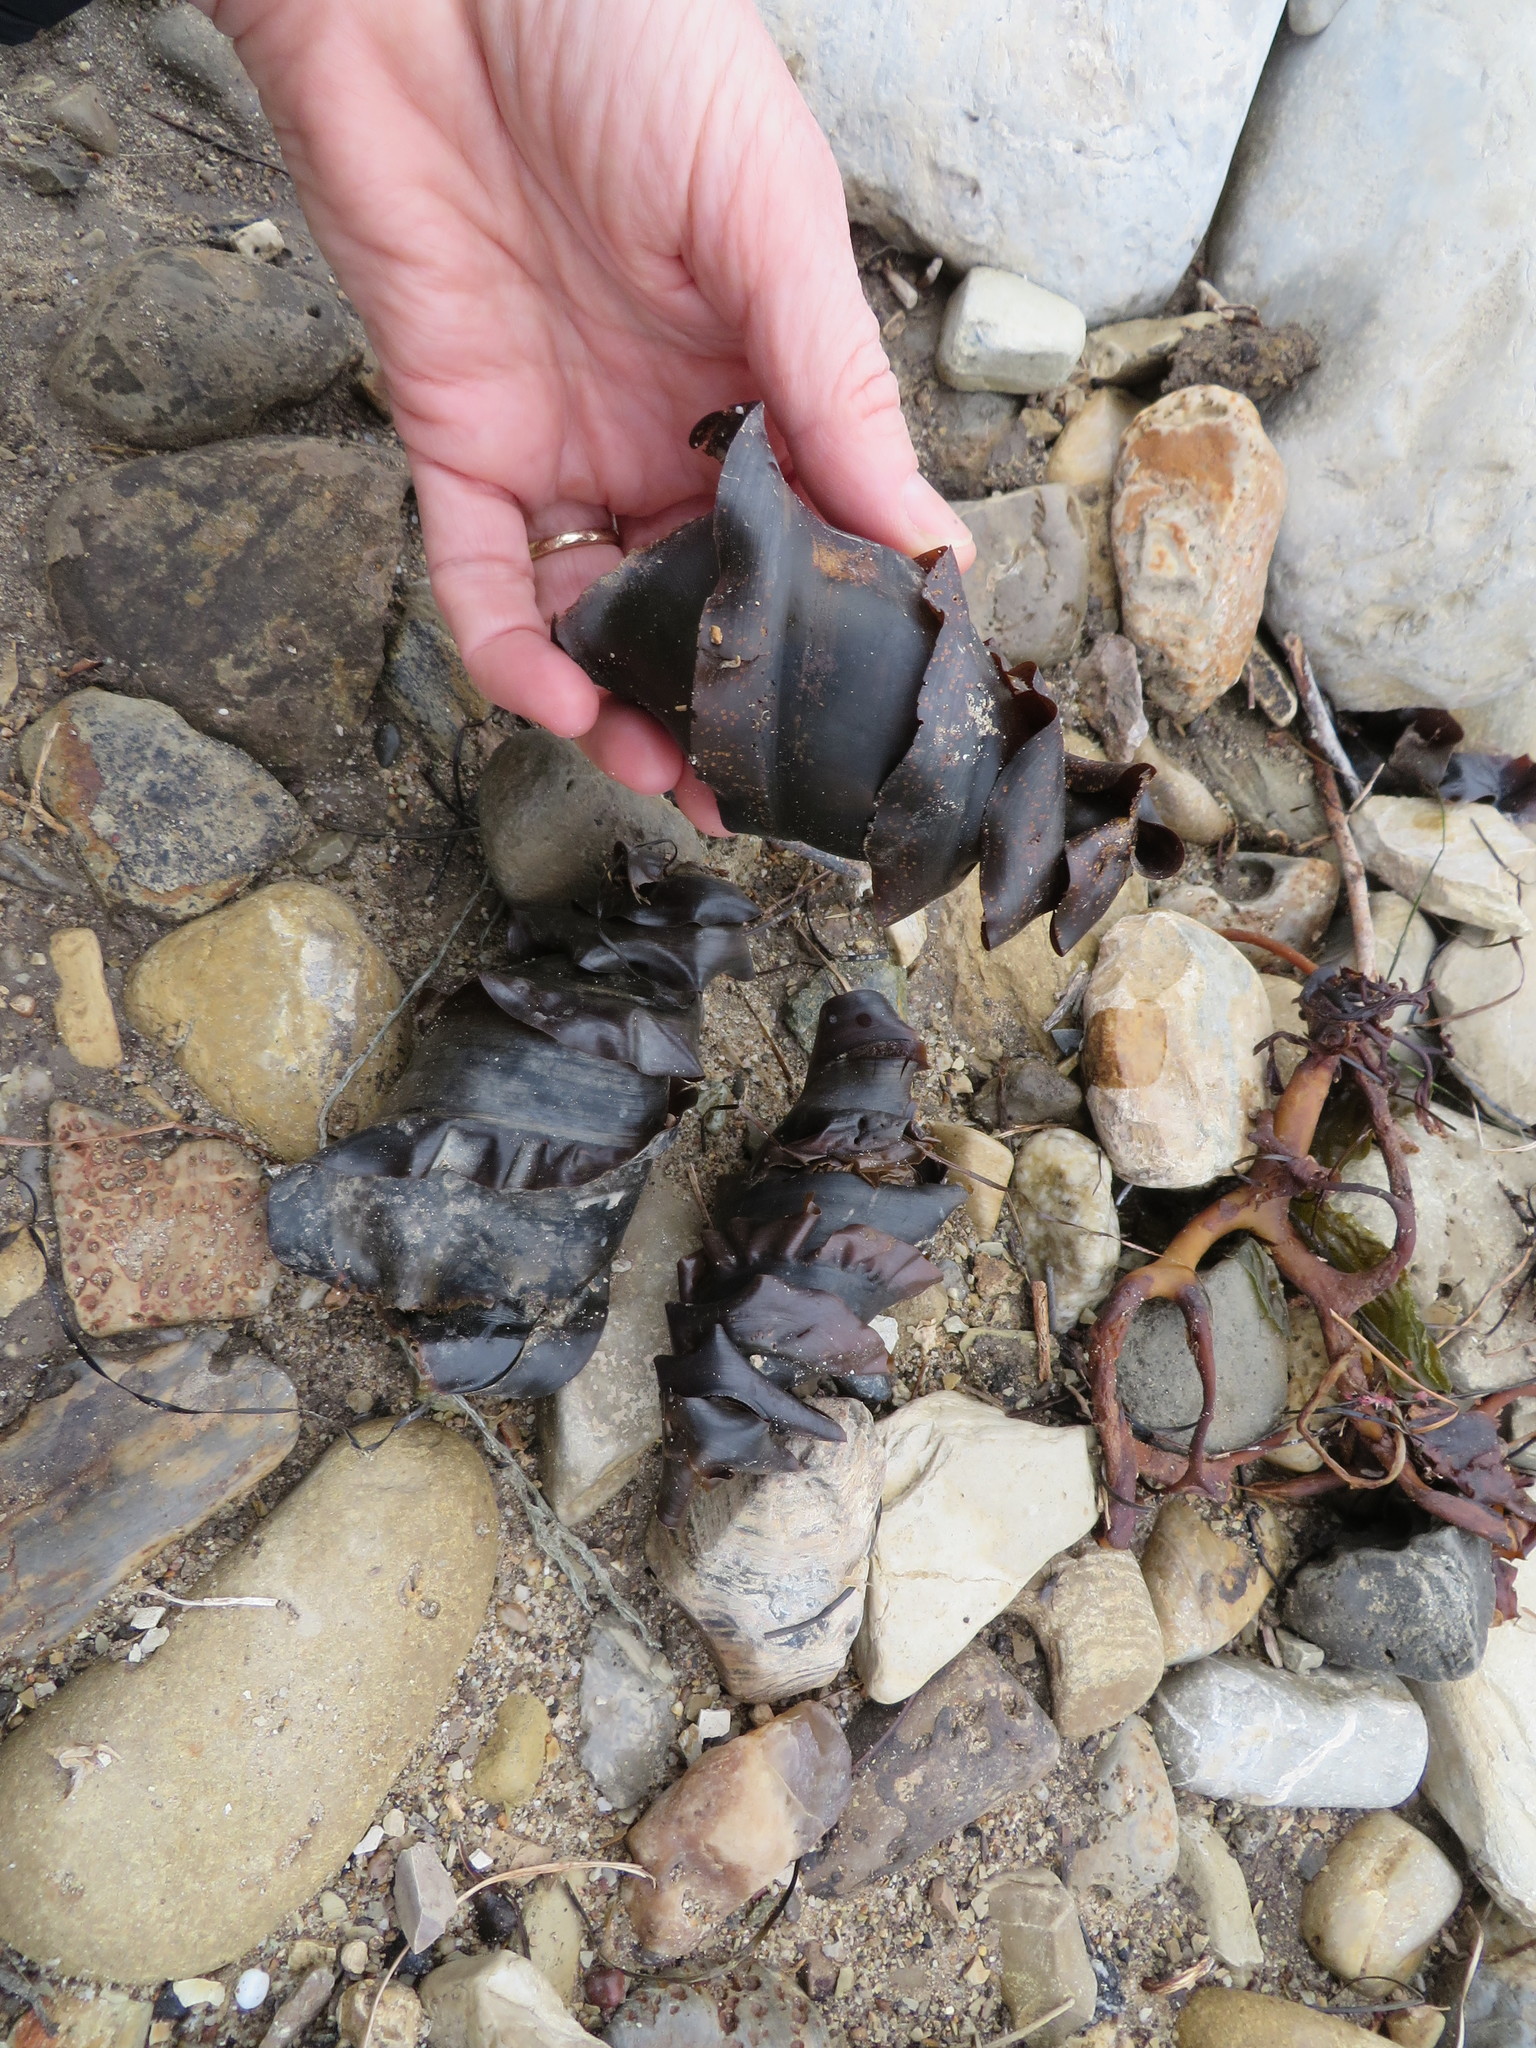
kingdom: Animalia
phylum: Chordata
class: Elasmobranchii
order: Heterodontiformes
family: Heterodontidae
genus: Heterodontus
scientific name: Heterodontus francisci
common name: Horn shark
